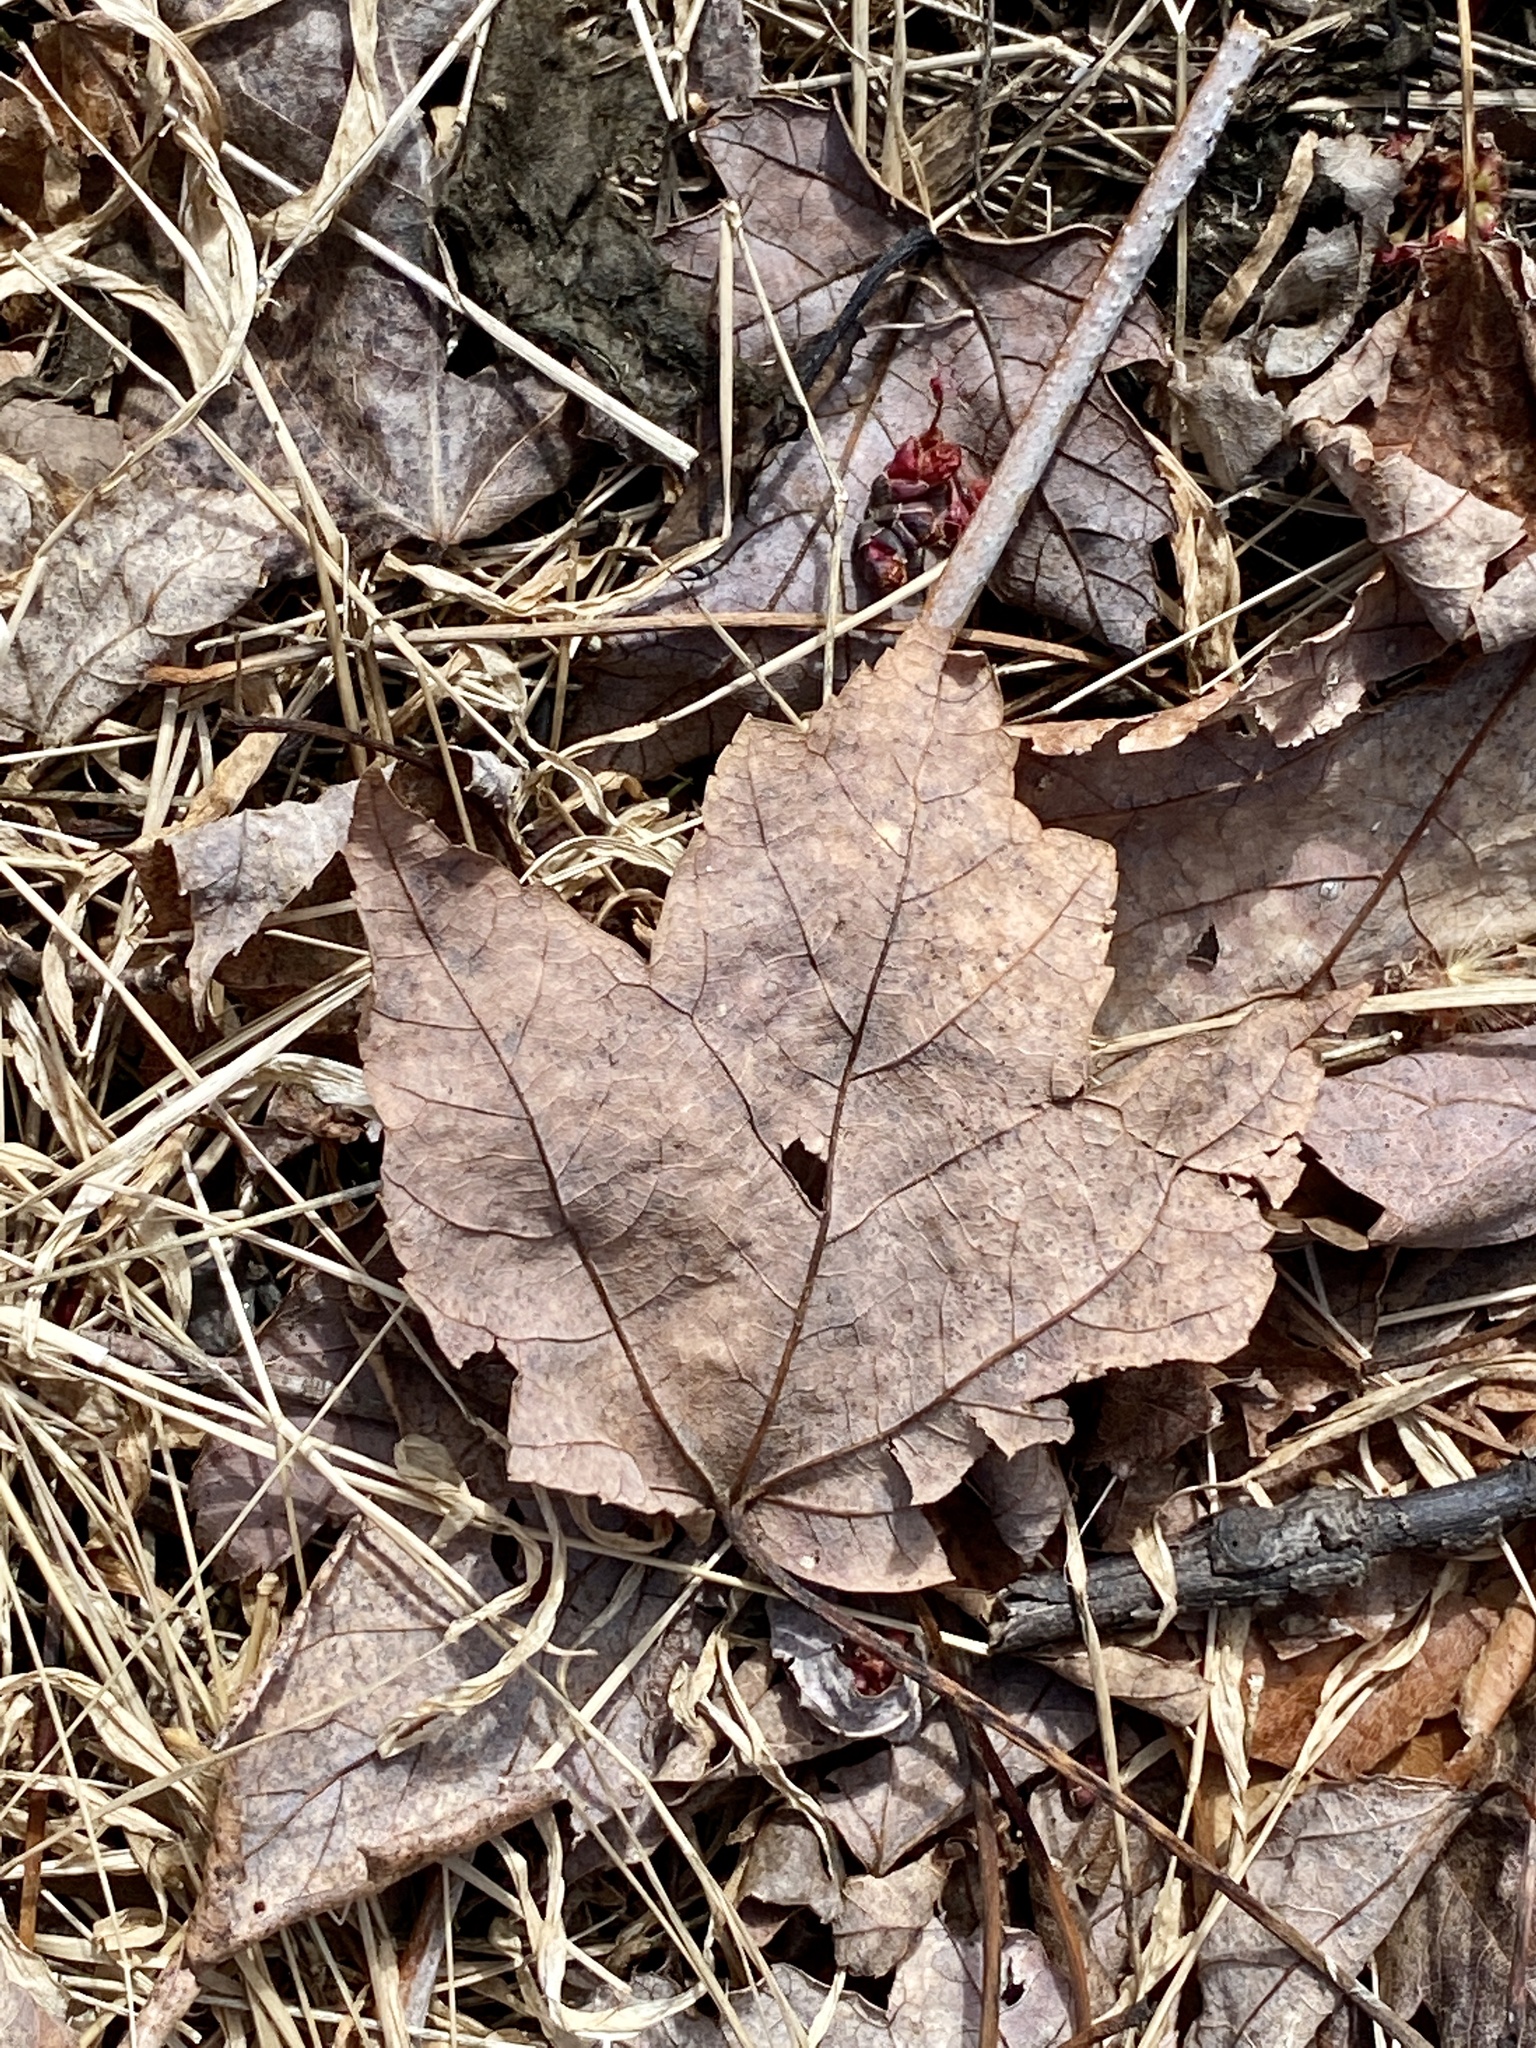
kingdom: Plantae
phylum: Tracheophyta
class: Magnoliopsida
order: Sapindales
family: Sapindaceae
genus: Acer
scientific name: Acer rubrum
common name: Red maple
